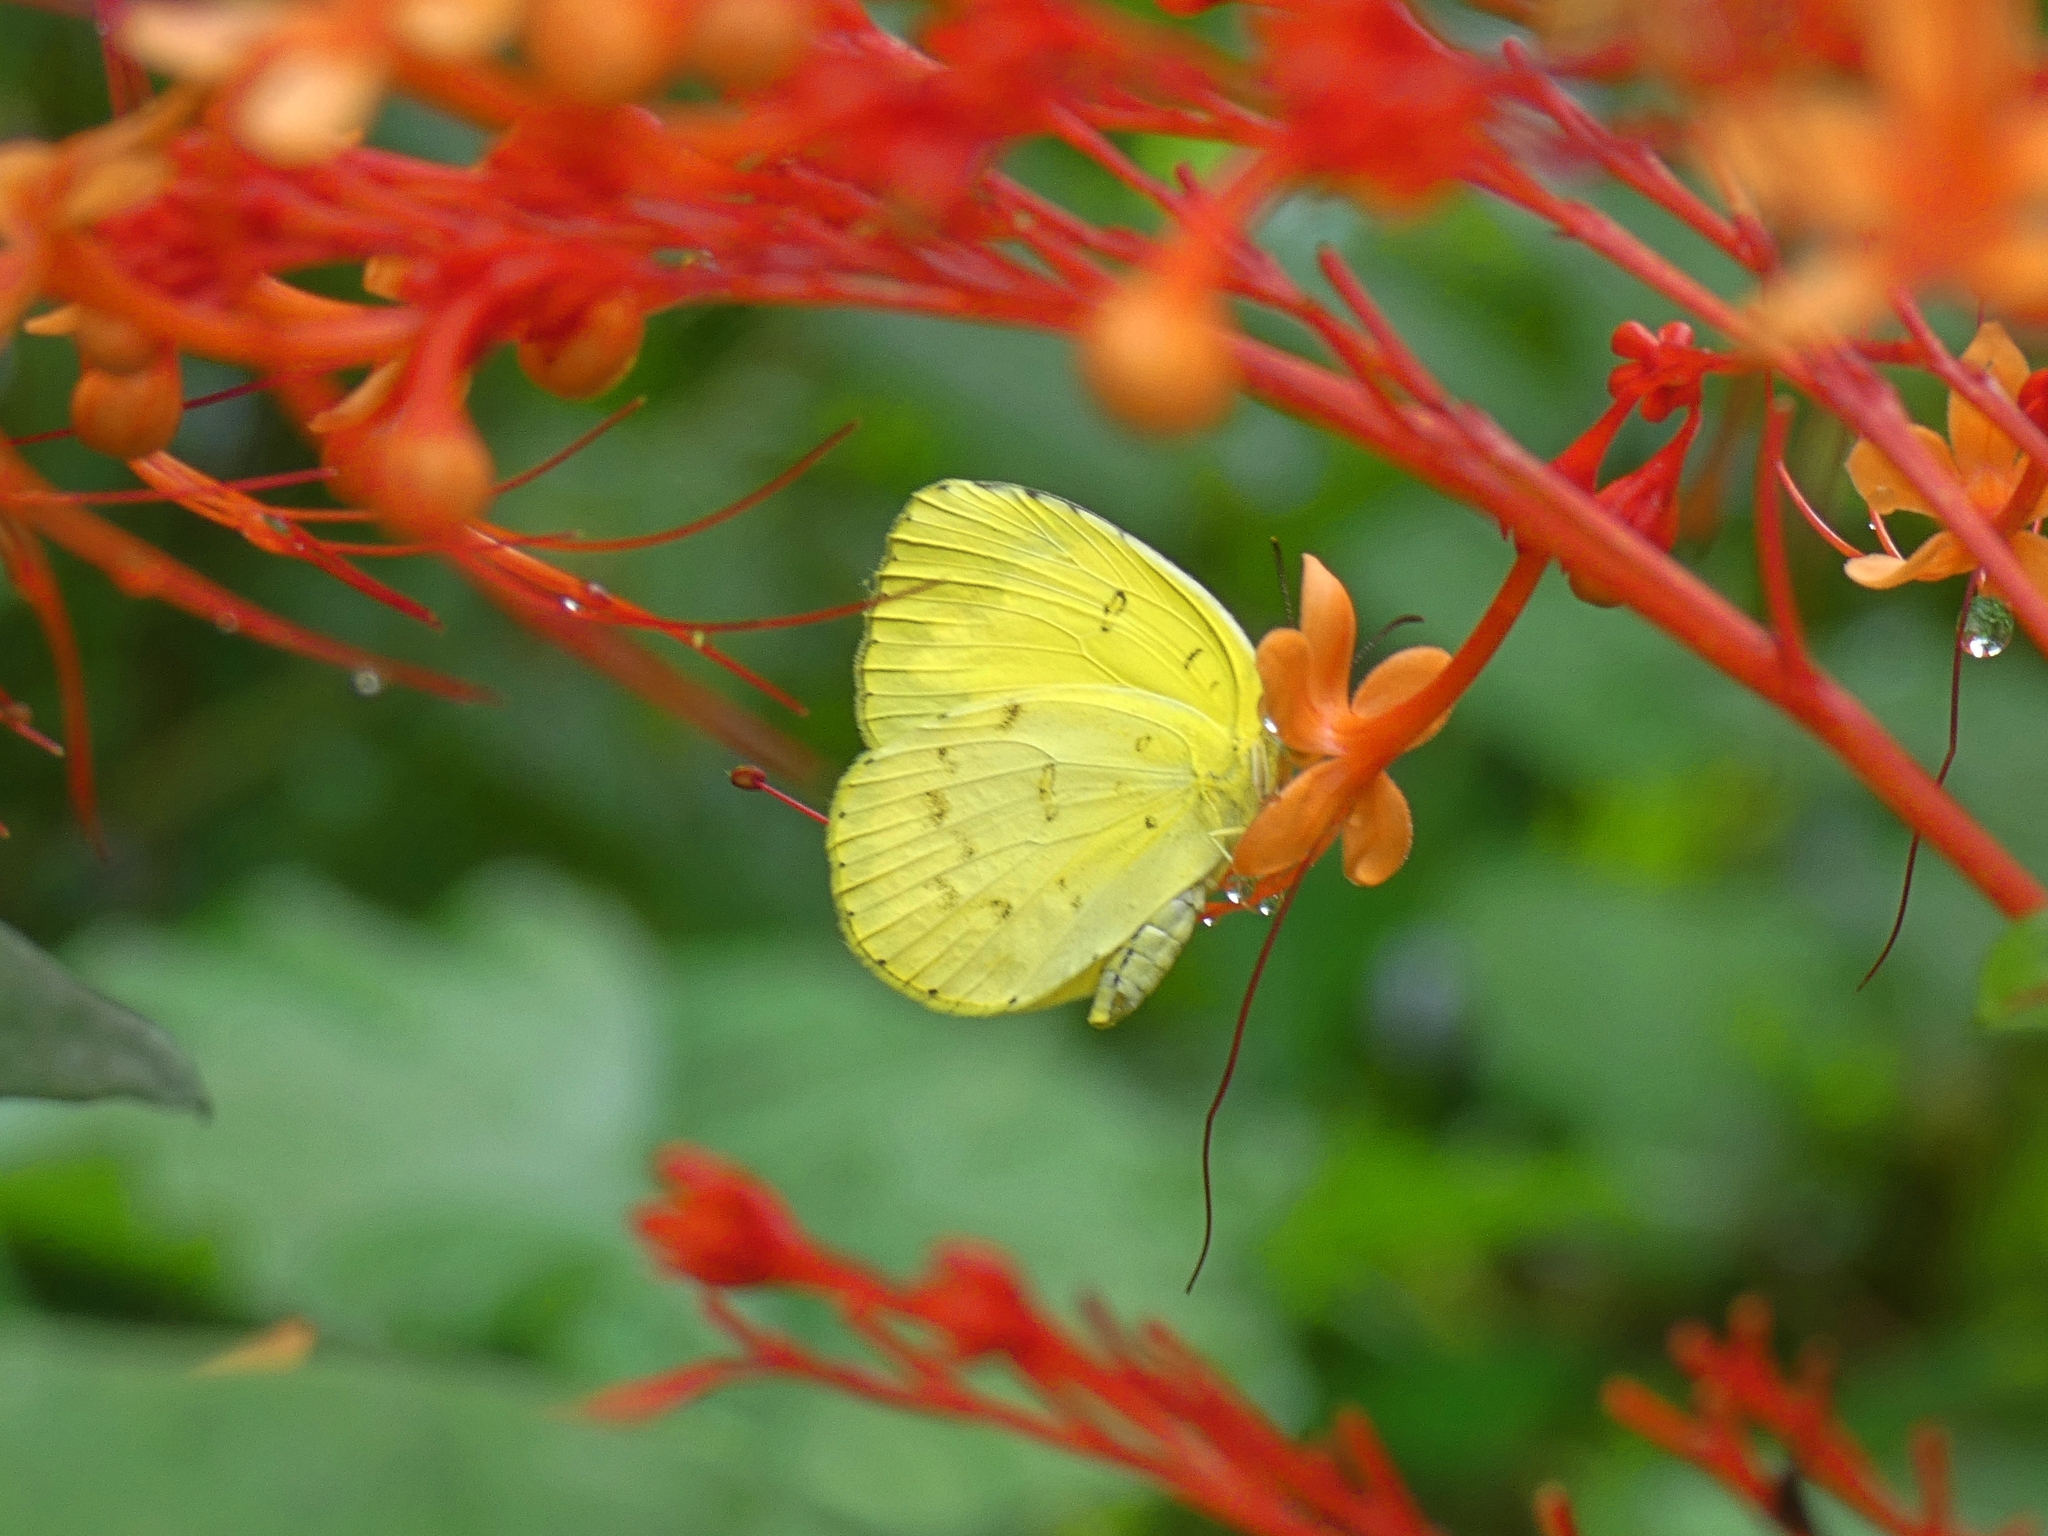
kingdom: Animalia
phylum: Arthropoda
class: Insecta
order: Lepidoptera
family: Pieridae
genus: Eurema
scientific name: Eurema hecabe
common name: Pale grass yellow
